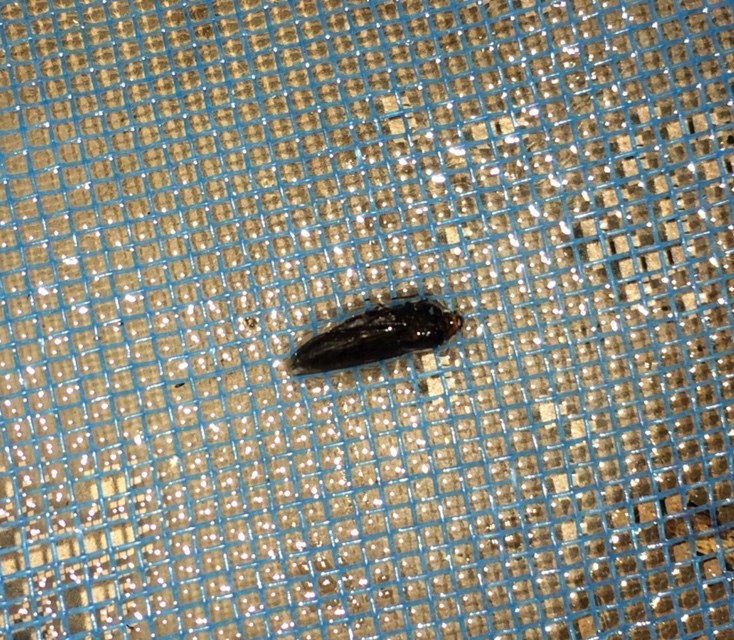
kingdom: Animalia
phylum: Arthropoda
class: Insecta
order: Diptera
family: Stratiomyidae
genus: Inopus
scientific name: Inopus rubriceps
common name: Soldier fly
